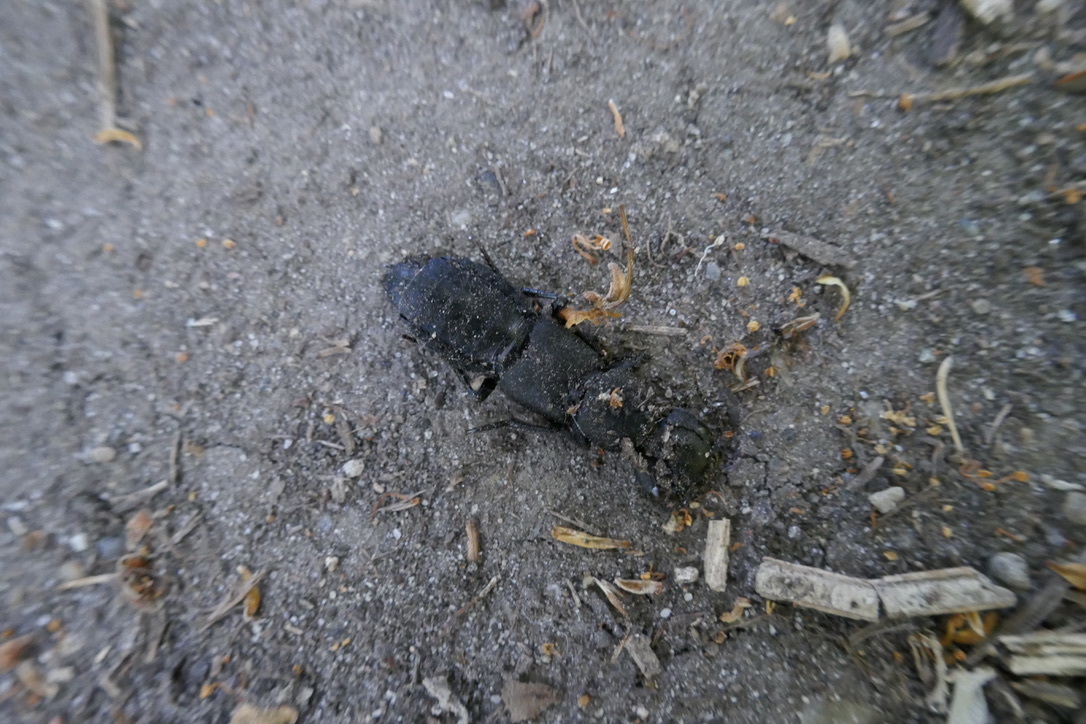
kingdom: Animalia
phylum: Arthropoda
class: Insecta
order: Coleoptera
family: Staphylinidae
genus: Ocypus
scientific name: Ocypus olens
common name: Devil's coach-horse
